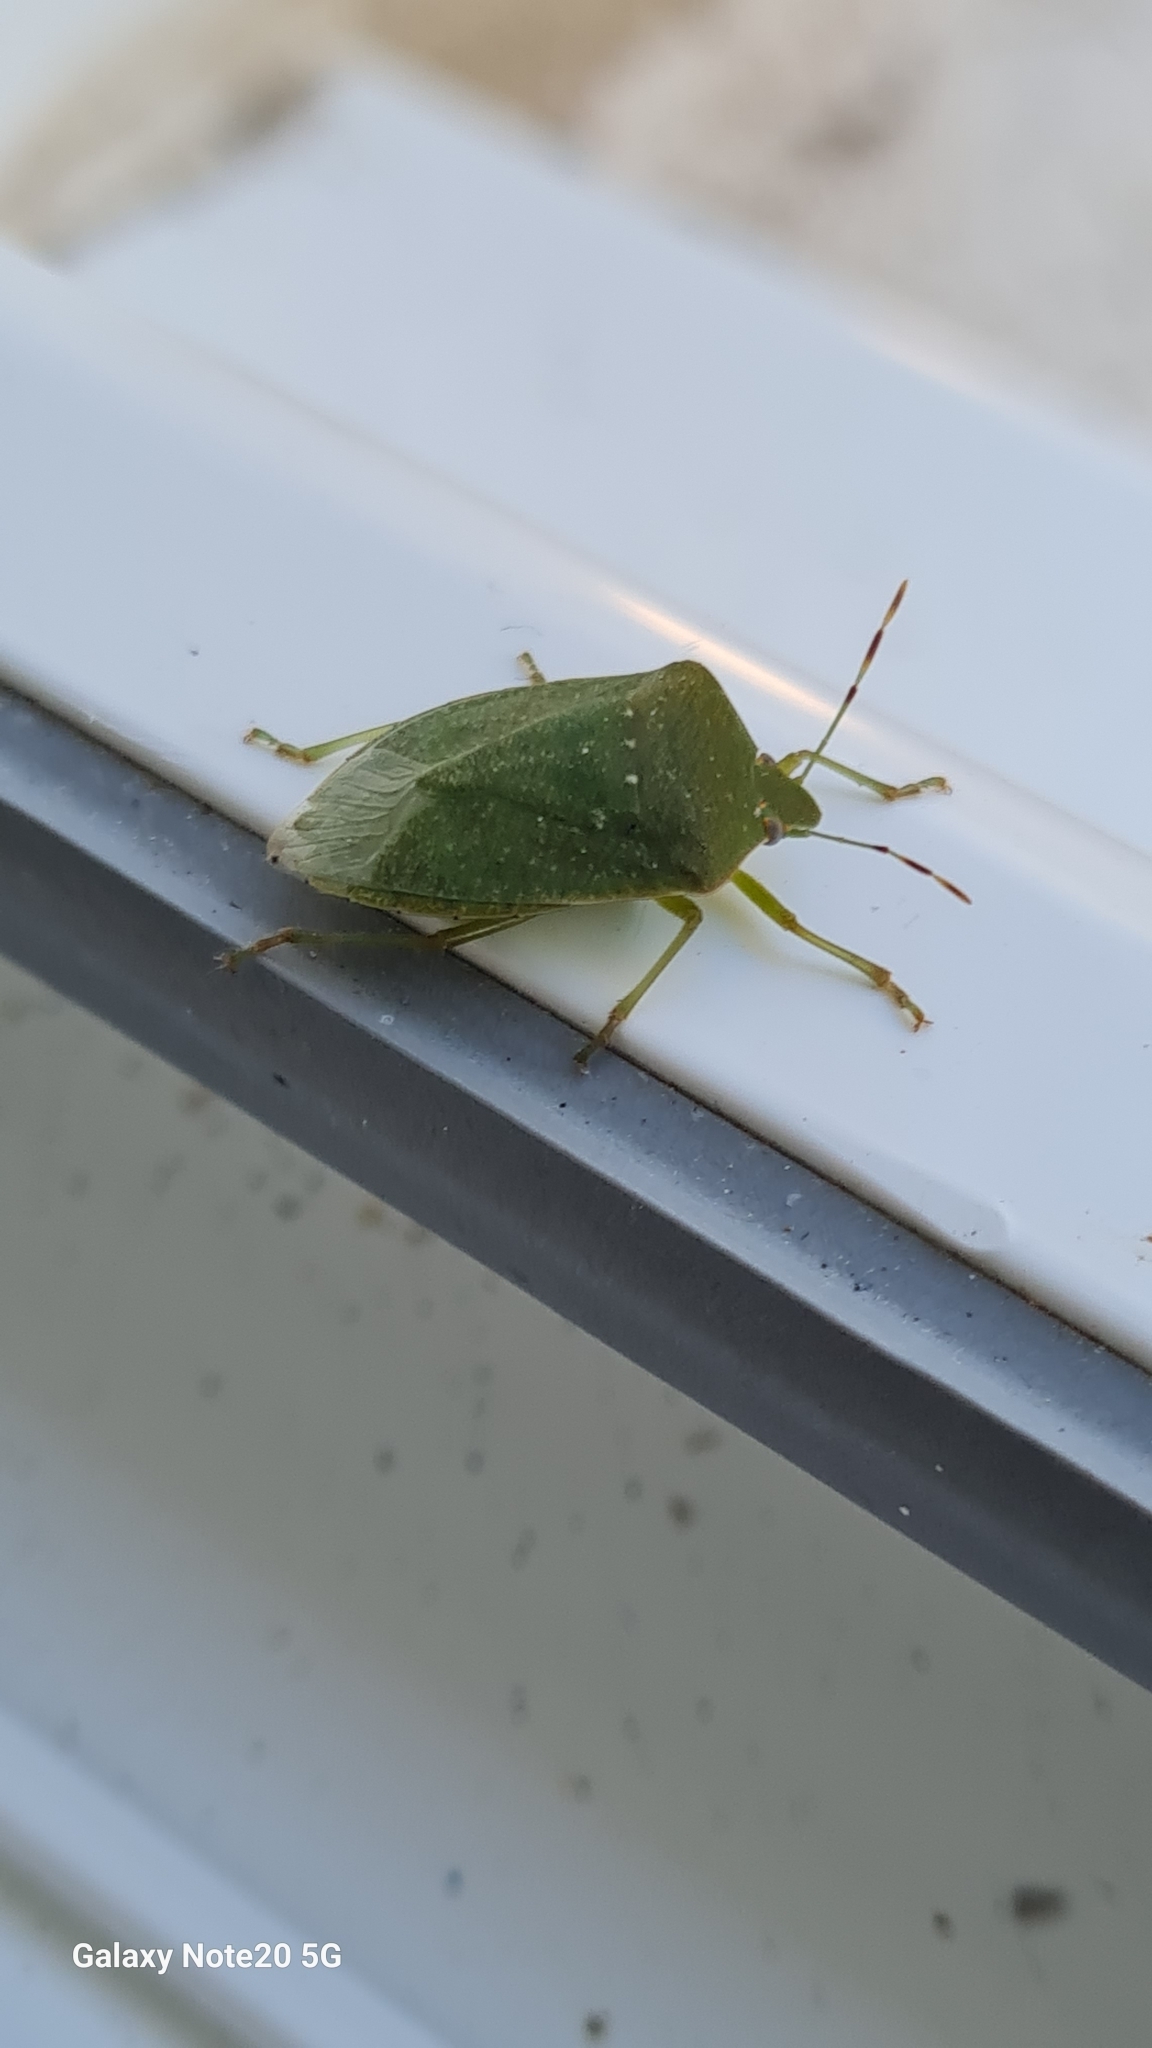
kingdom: Animalia
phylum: Arthropoda
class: Insecta
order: Hemiptera
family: Pentatomidae
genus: Nezara
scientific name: Nezara viridula
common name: Southern green stink bug
